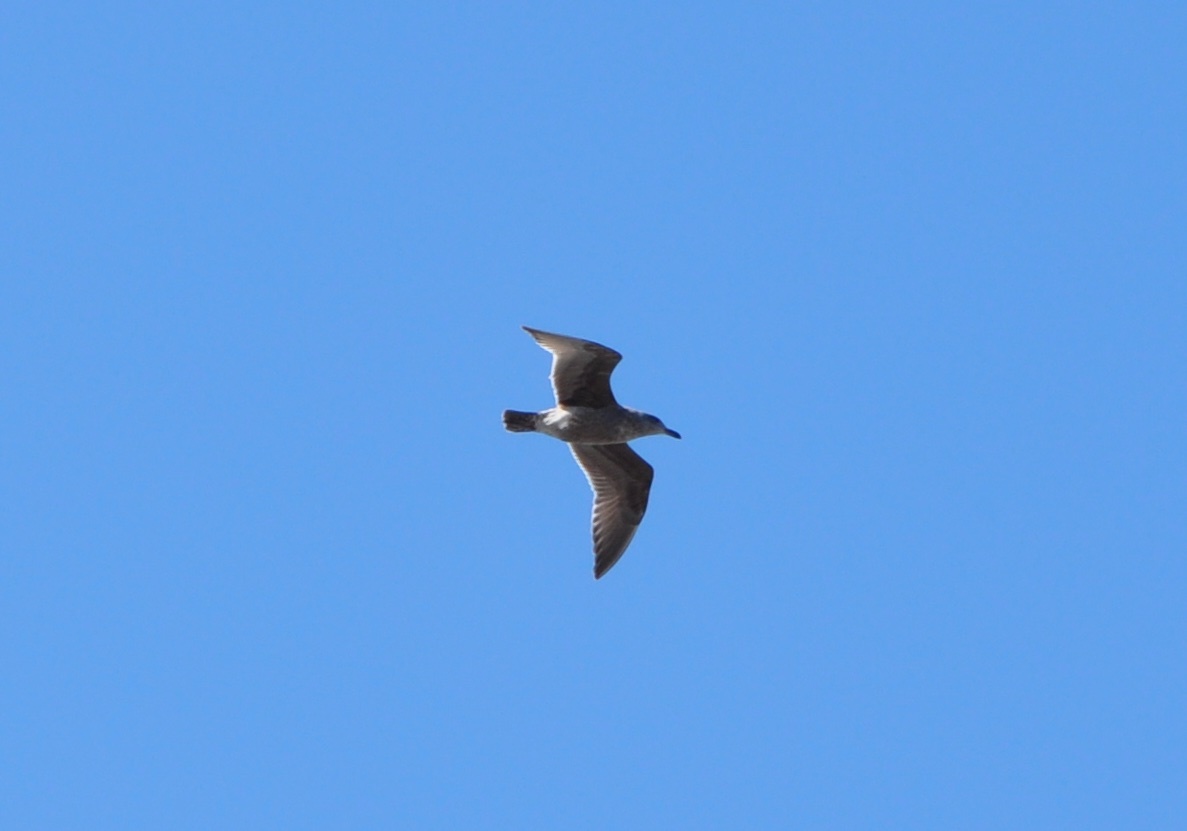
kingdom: Animalia
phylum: Chordata
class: Aves
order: Charadriiformes
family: Laridae
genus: Larus
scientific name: Larus occidentalis
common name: Western gull
